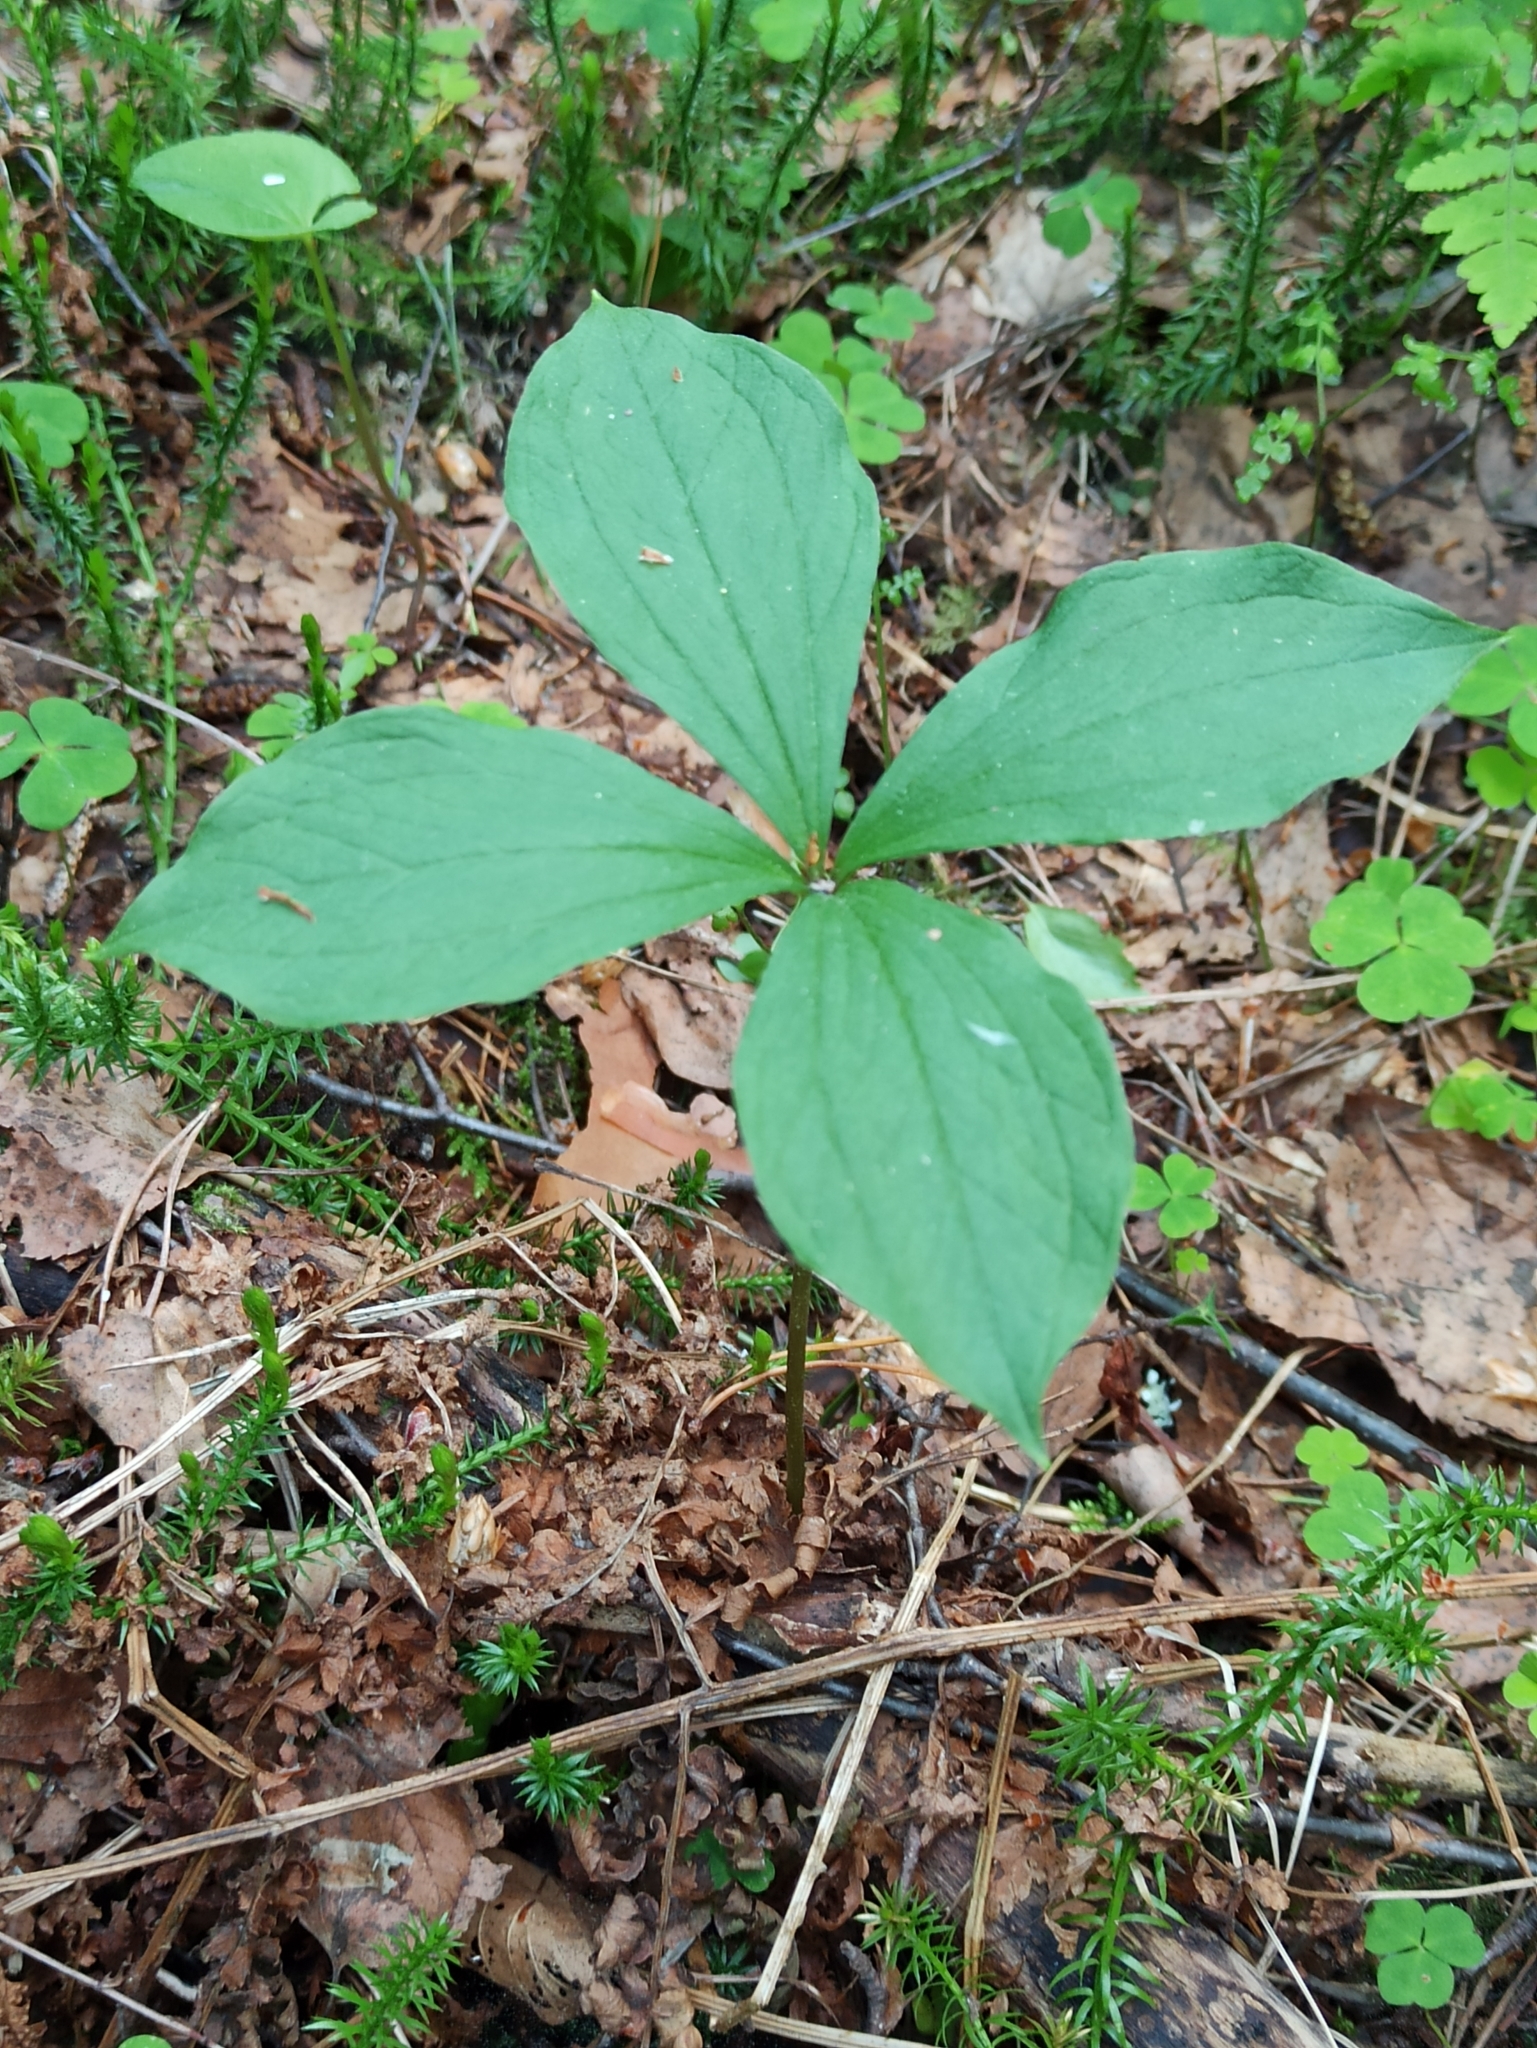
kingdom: Plantae
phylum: Tracheophyta
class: Liliopsida
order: Liliales
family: Melanthiaceae
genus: Paris
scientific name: Paris quadrifolia
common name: Herb-paris
